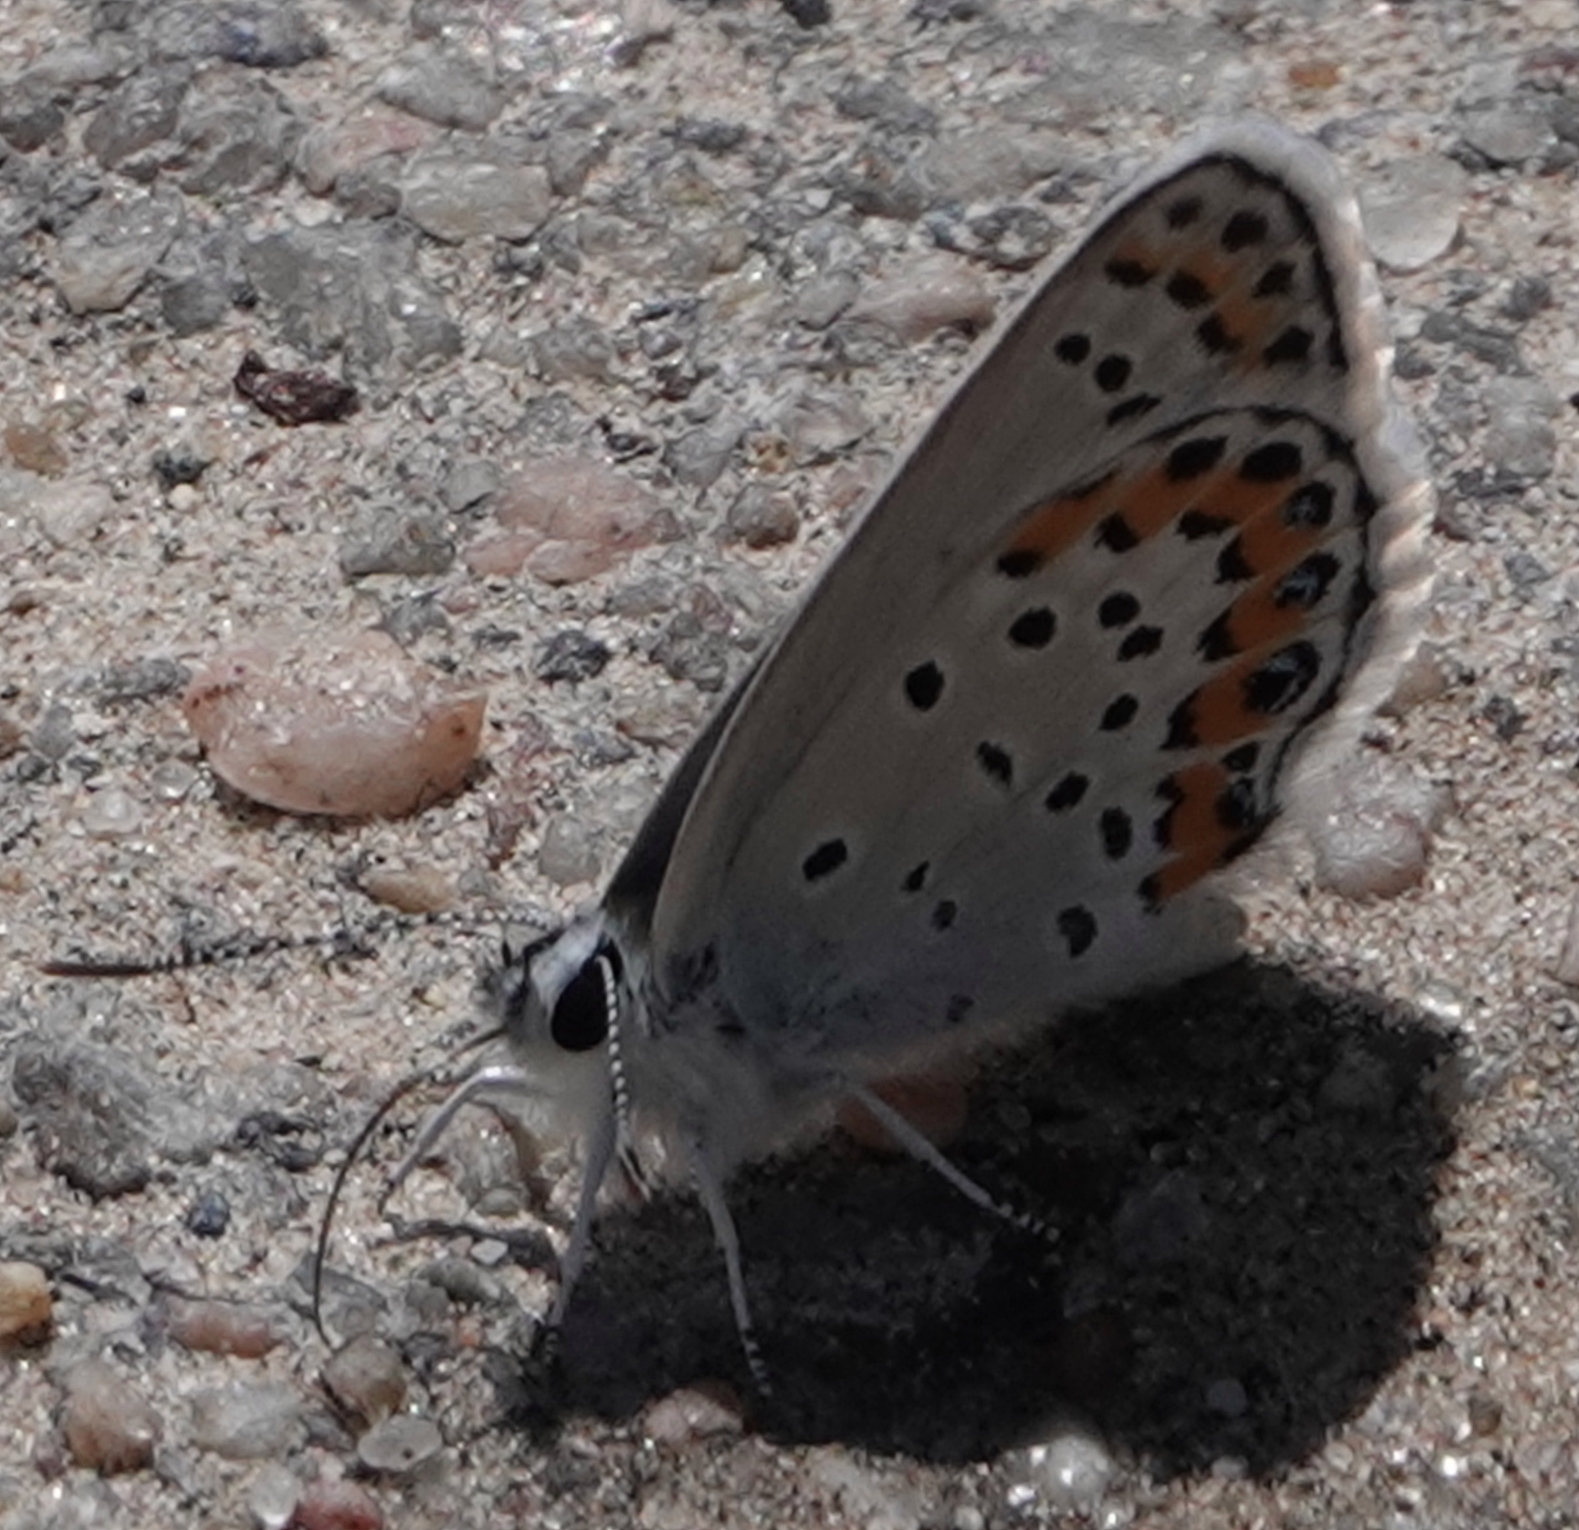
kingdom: Animalia
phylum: Arthropoda
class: Insecta
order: Lepidoptera
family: Lycaenidae
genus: Lycaeides
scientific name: Lycaeides melissa
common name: Melissa blue
